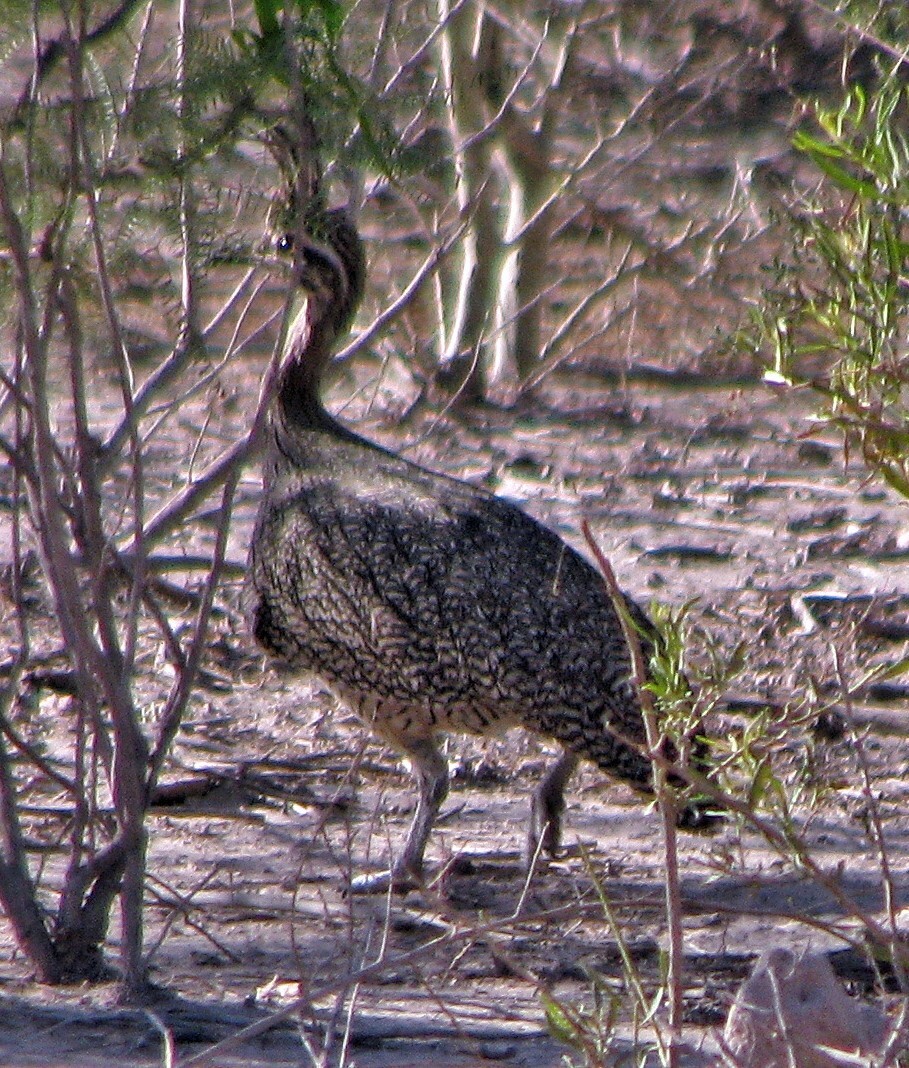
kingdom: Animalia
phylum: Chordata
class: Aves
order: Tinamiformes
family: Tinamidae
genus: Eudromia
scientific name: Eudromia elegans
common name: Elegant crested tinamou
